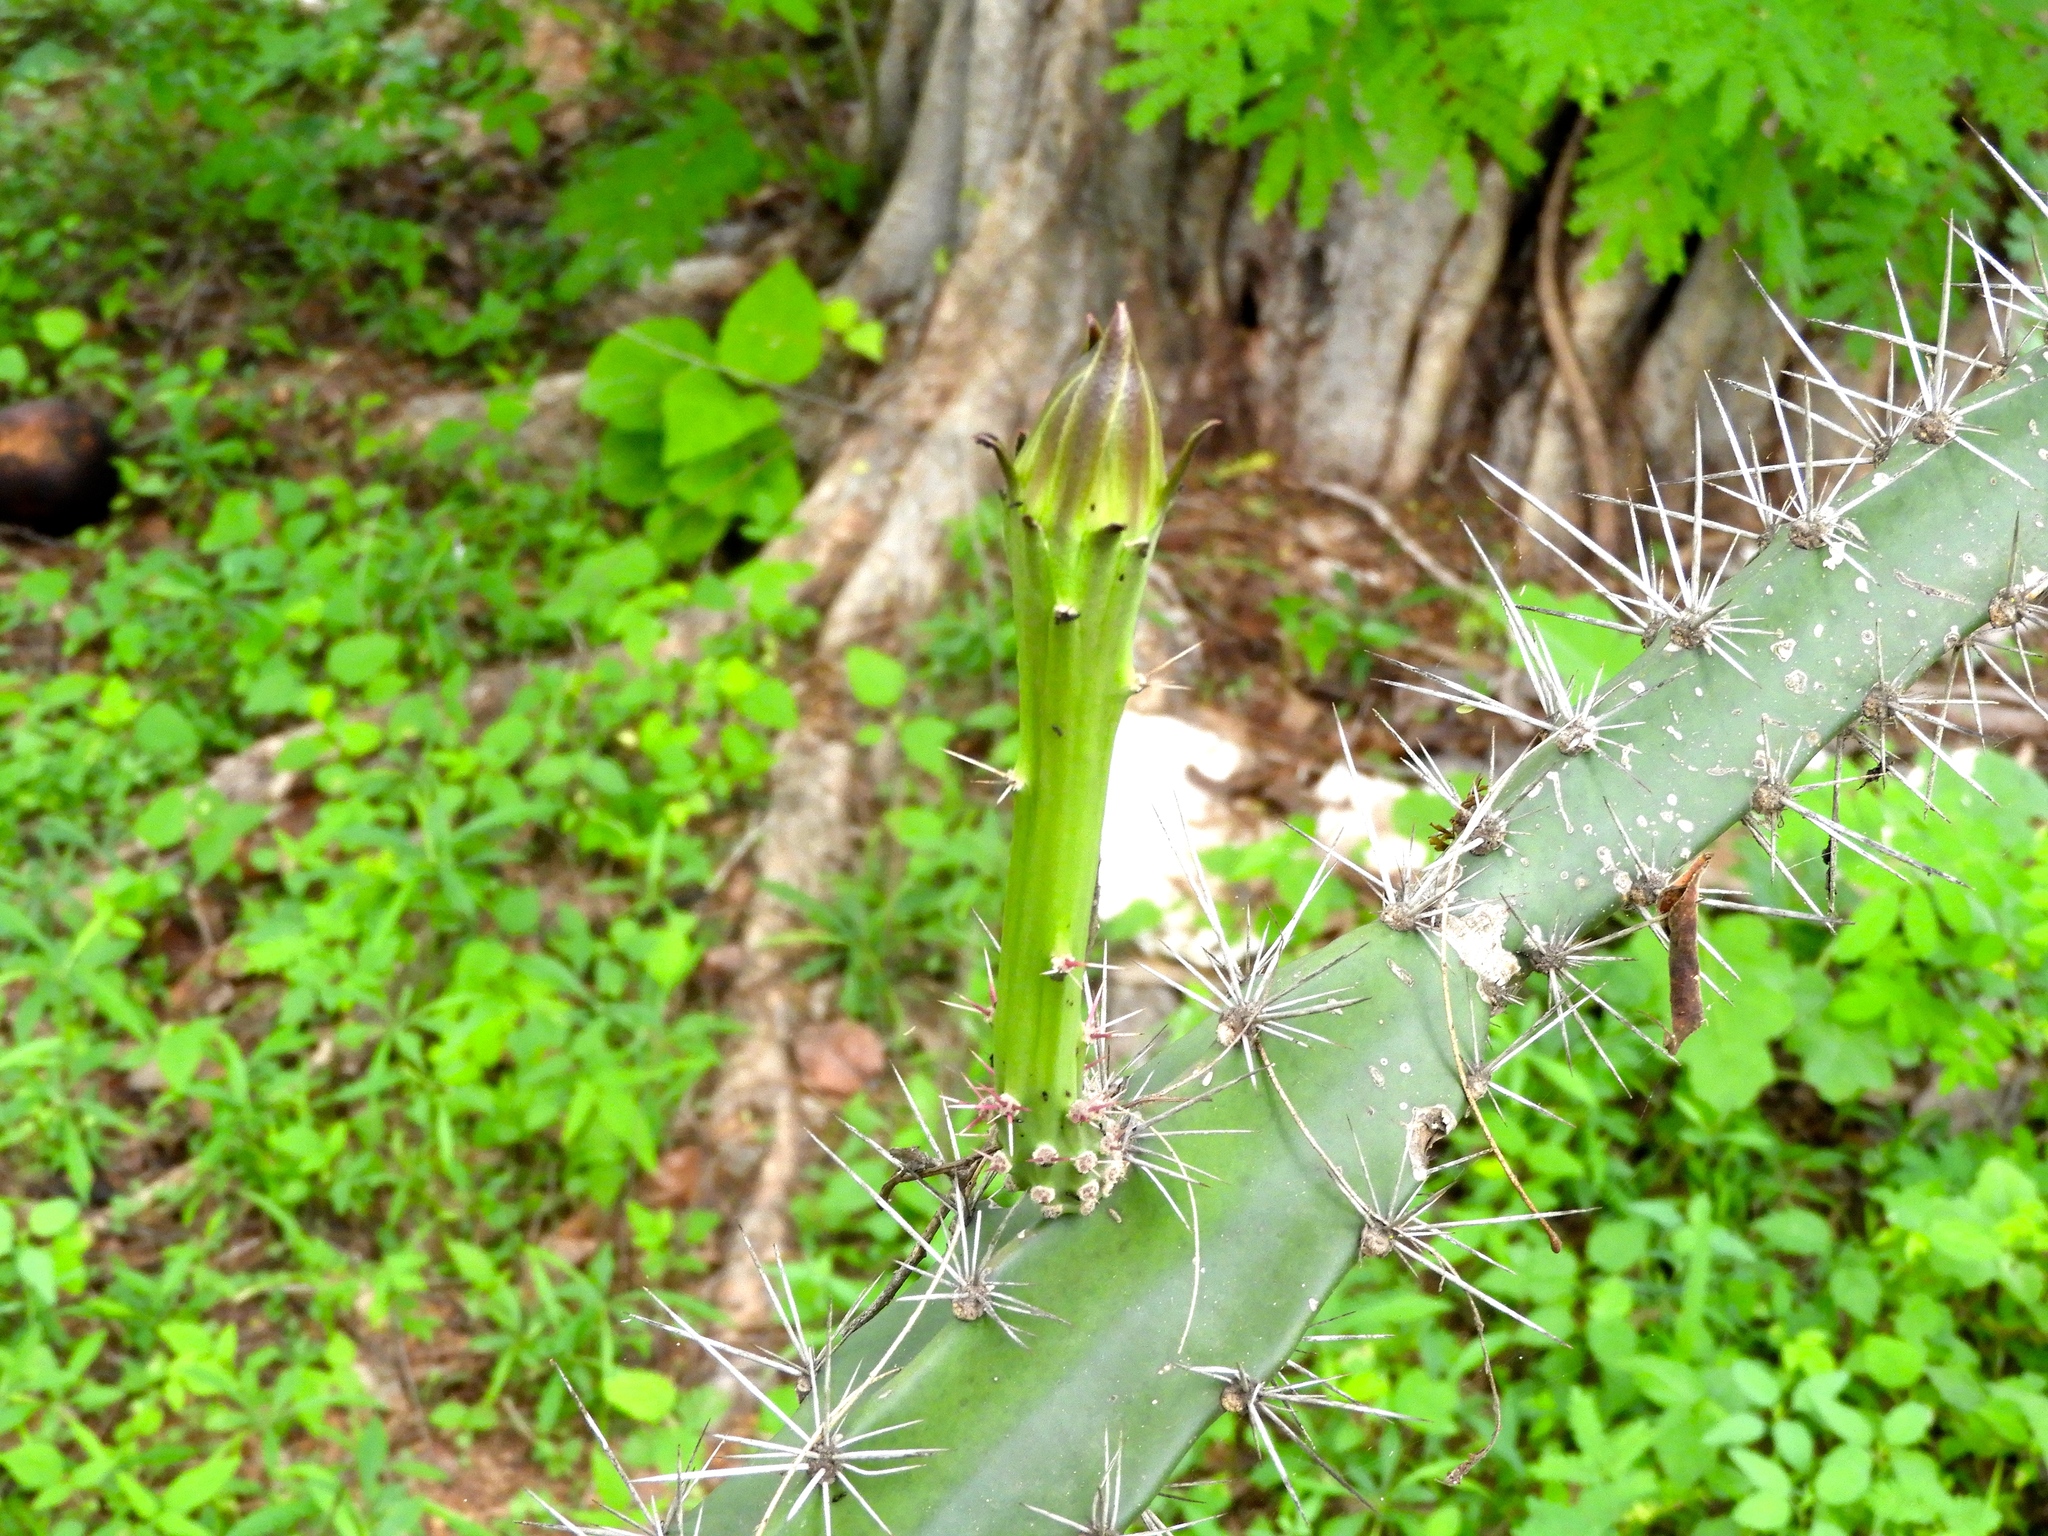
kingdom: Plantae
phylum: Tracheophyta
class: Magnoliopsida
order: Caryophyllales
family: Cactaceae
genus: Acanthocereus
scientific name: Acanthocereus tetragonus
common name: Triangle cactus
